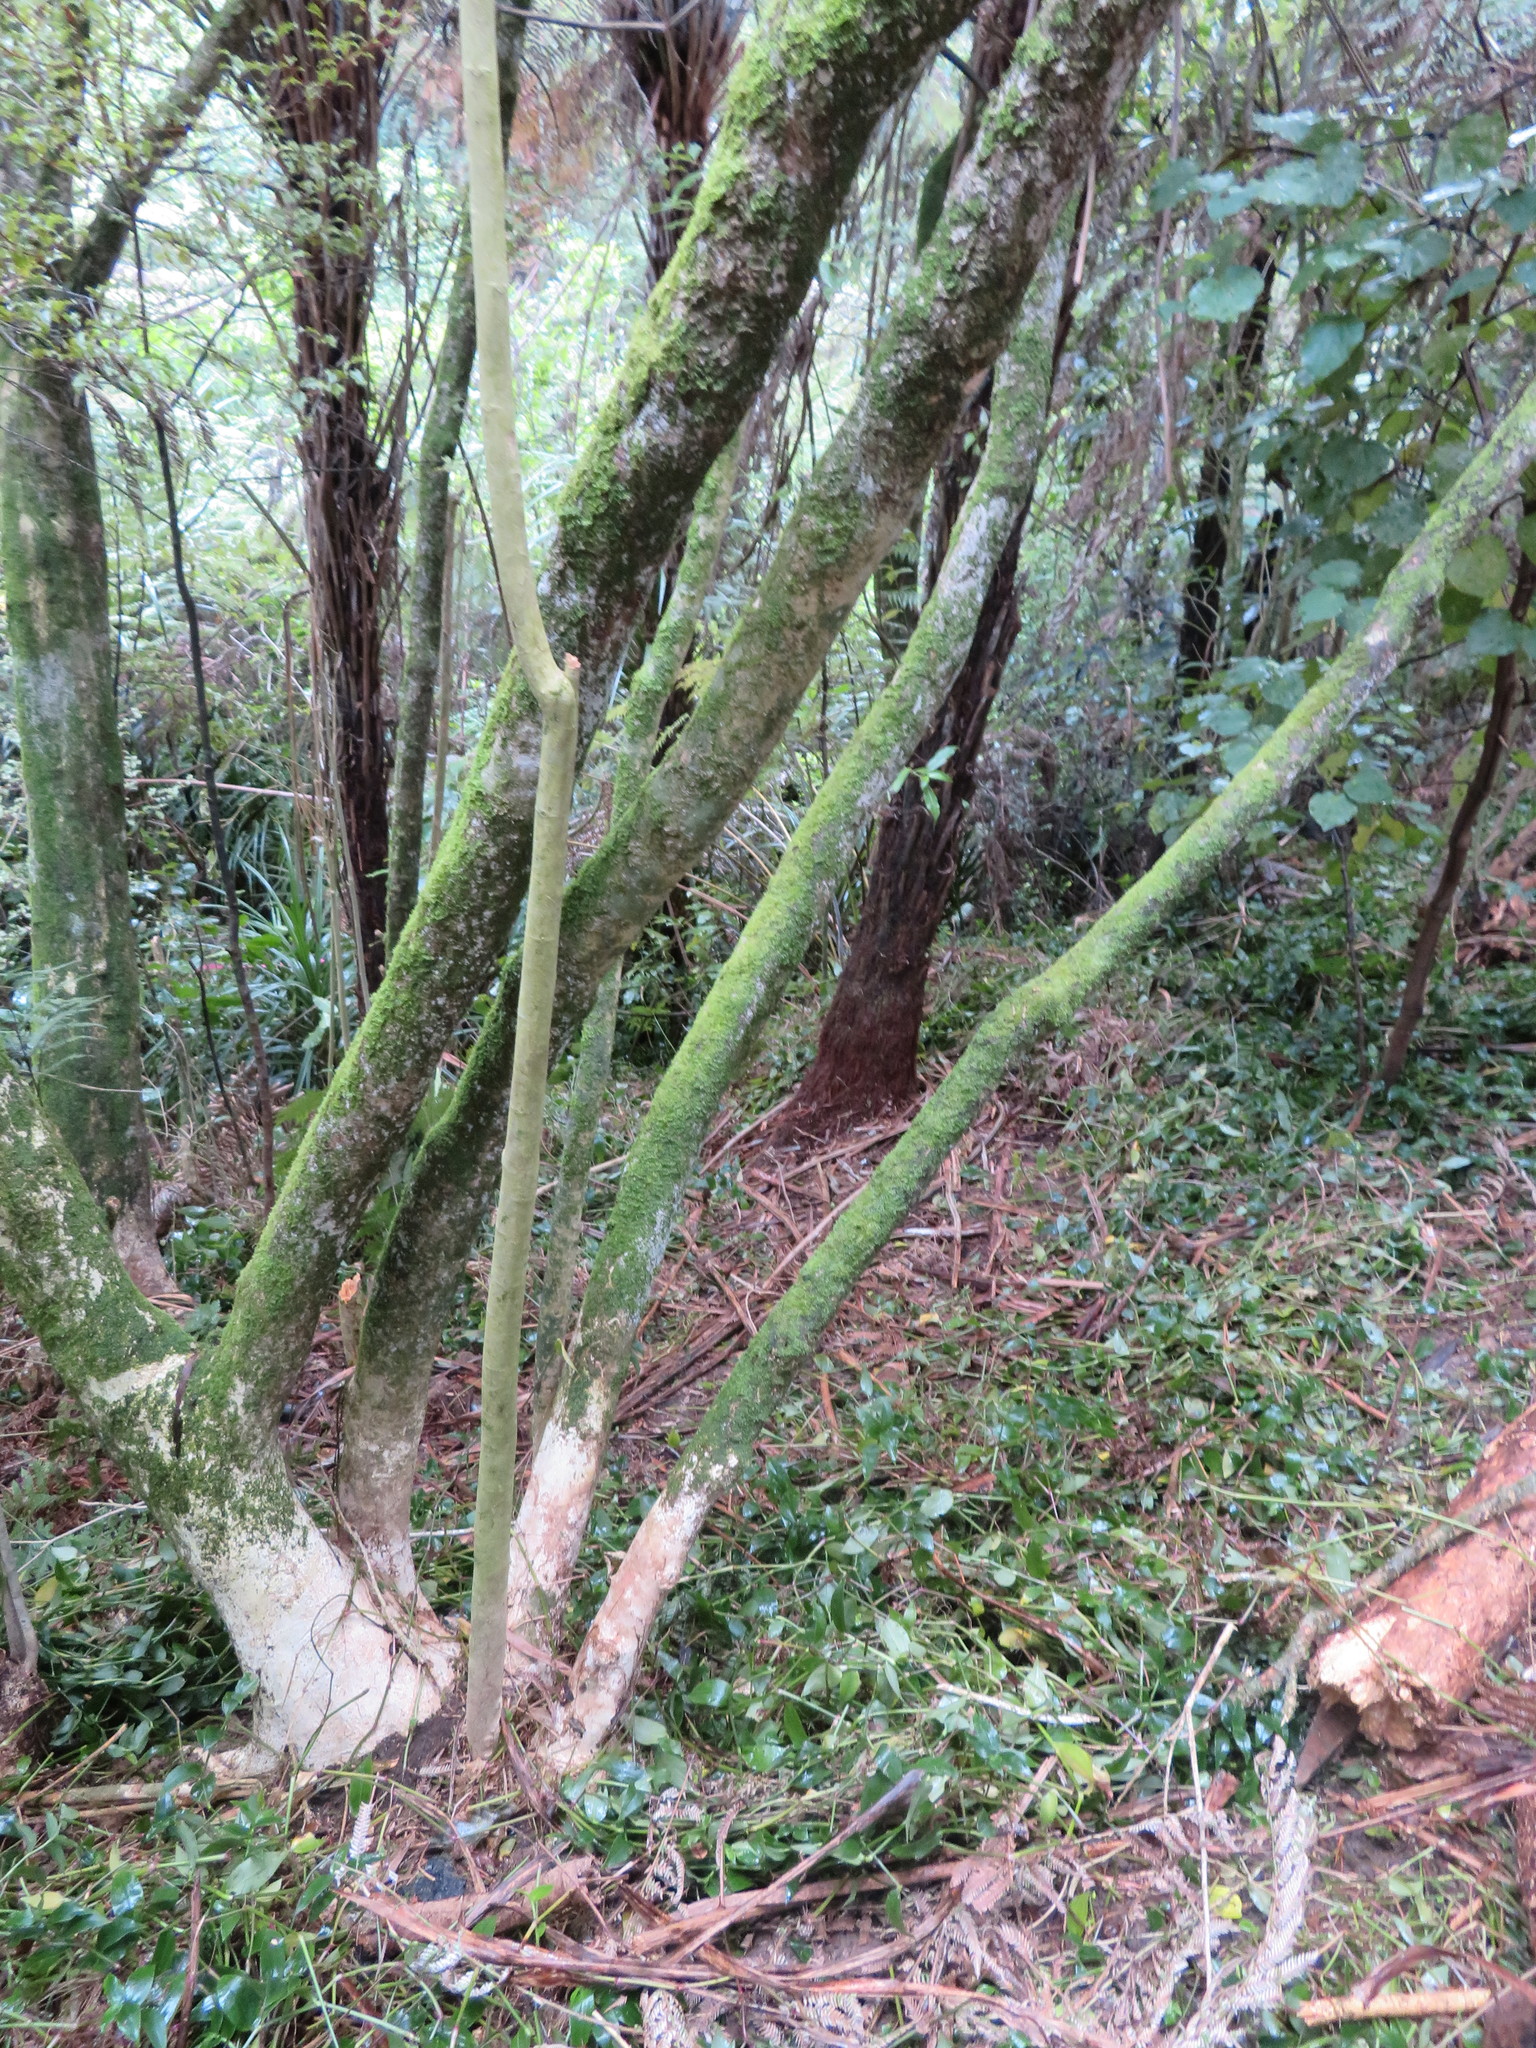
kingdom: Plantae
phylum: Tracheophyta
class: Liliopsida
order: Commelinales
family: Commelinaceae
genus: Tradescantia
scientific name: Tradescantia fluminensis
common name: Wandering-jew
